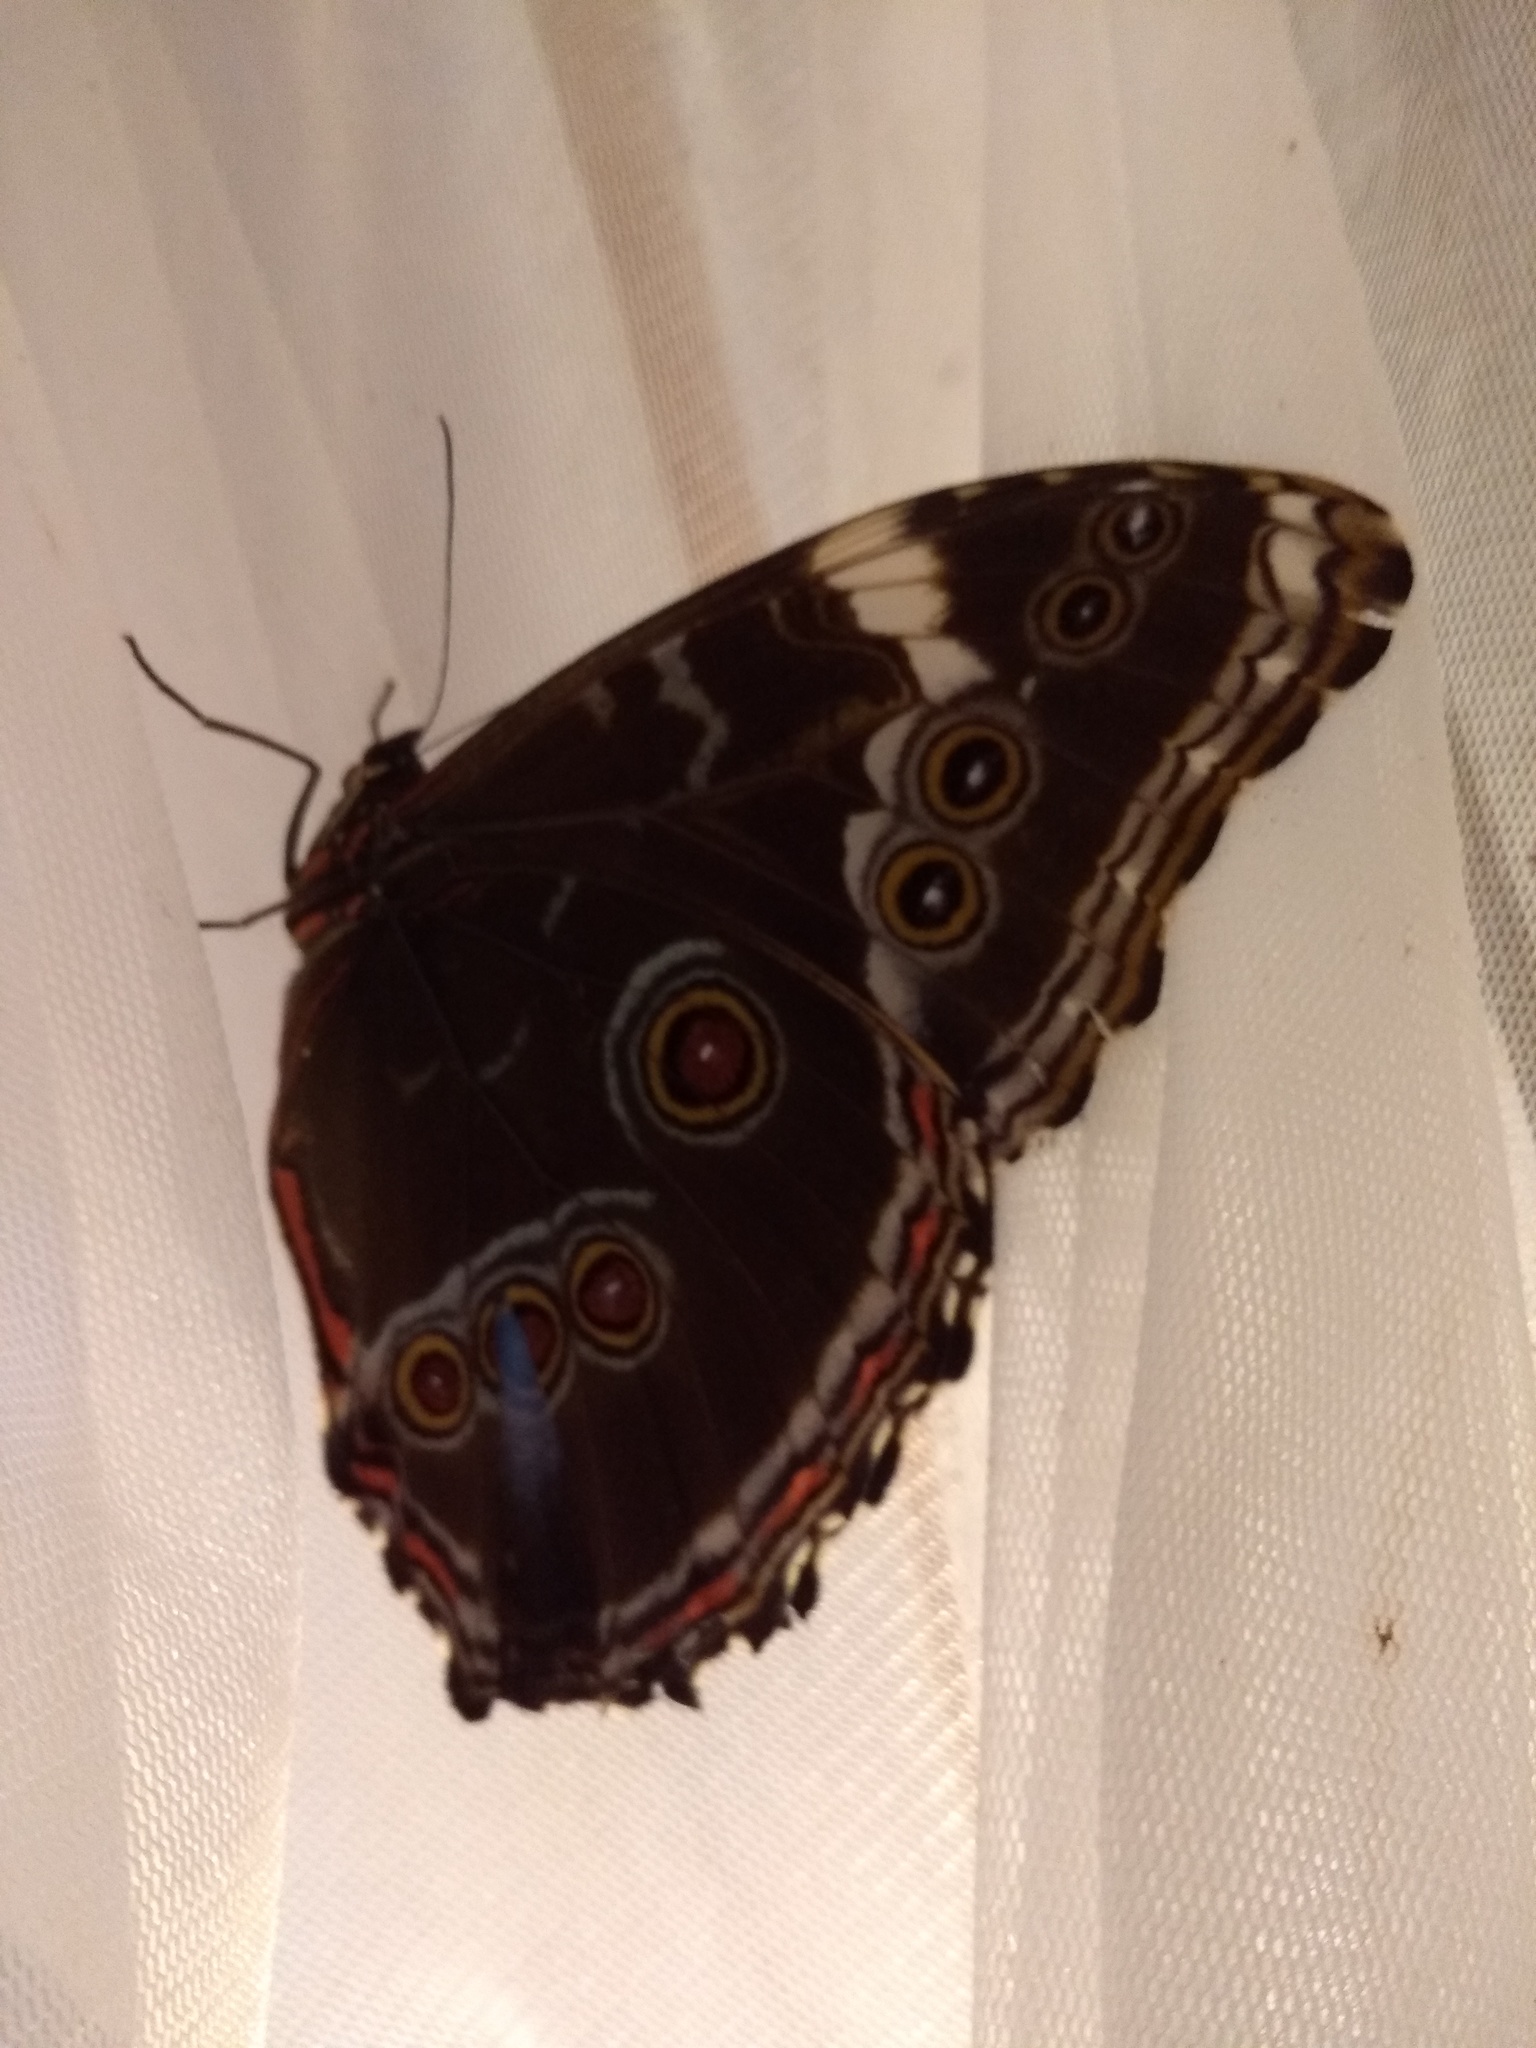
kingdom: Animalia
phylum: Arthropoda
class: Insecta
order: Lepidoptera
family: Nymphalidae
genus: Morpho
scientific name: Morpho helenor
